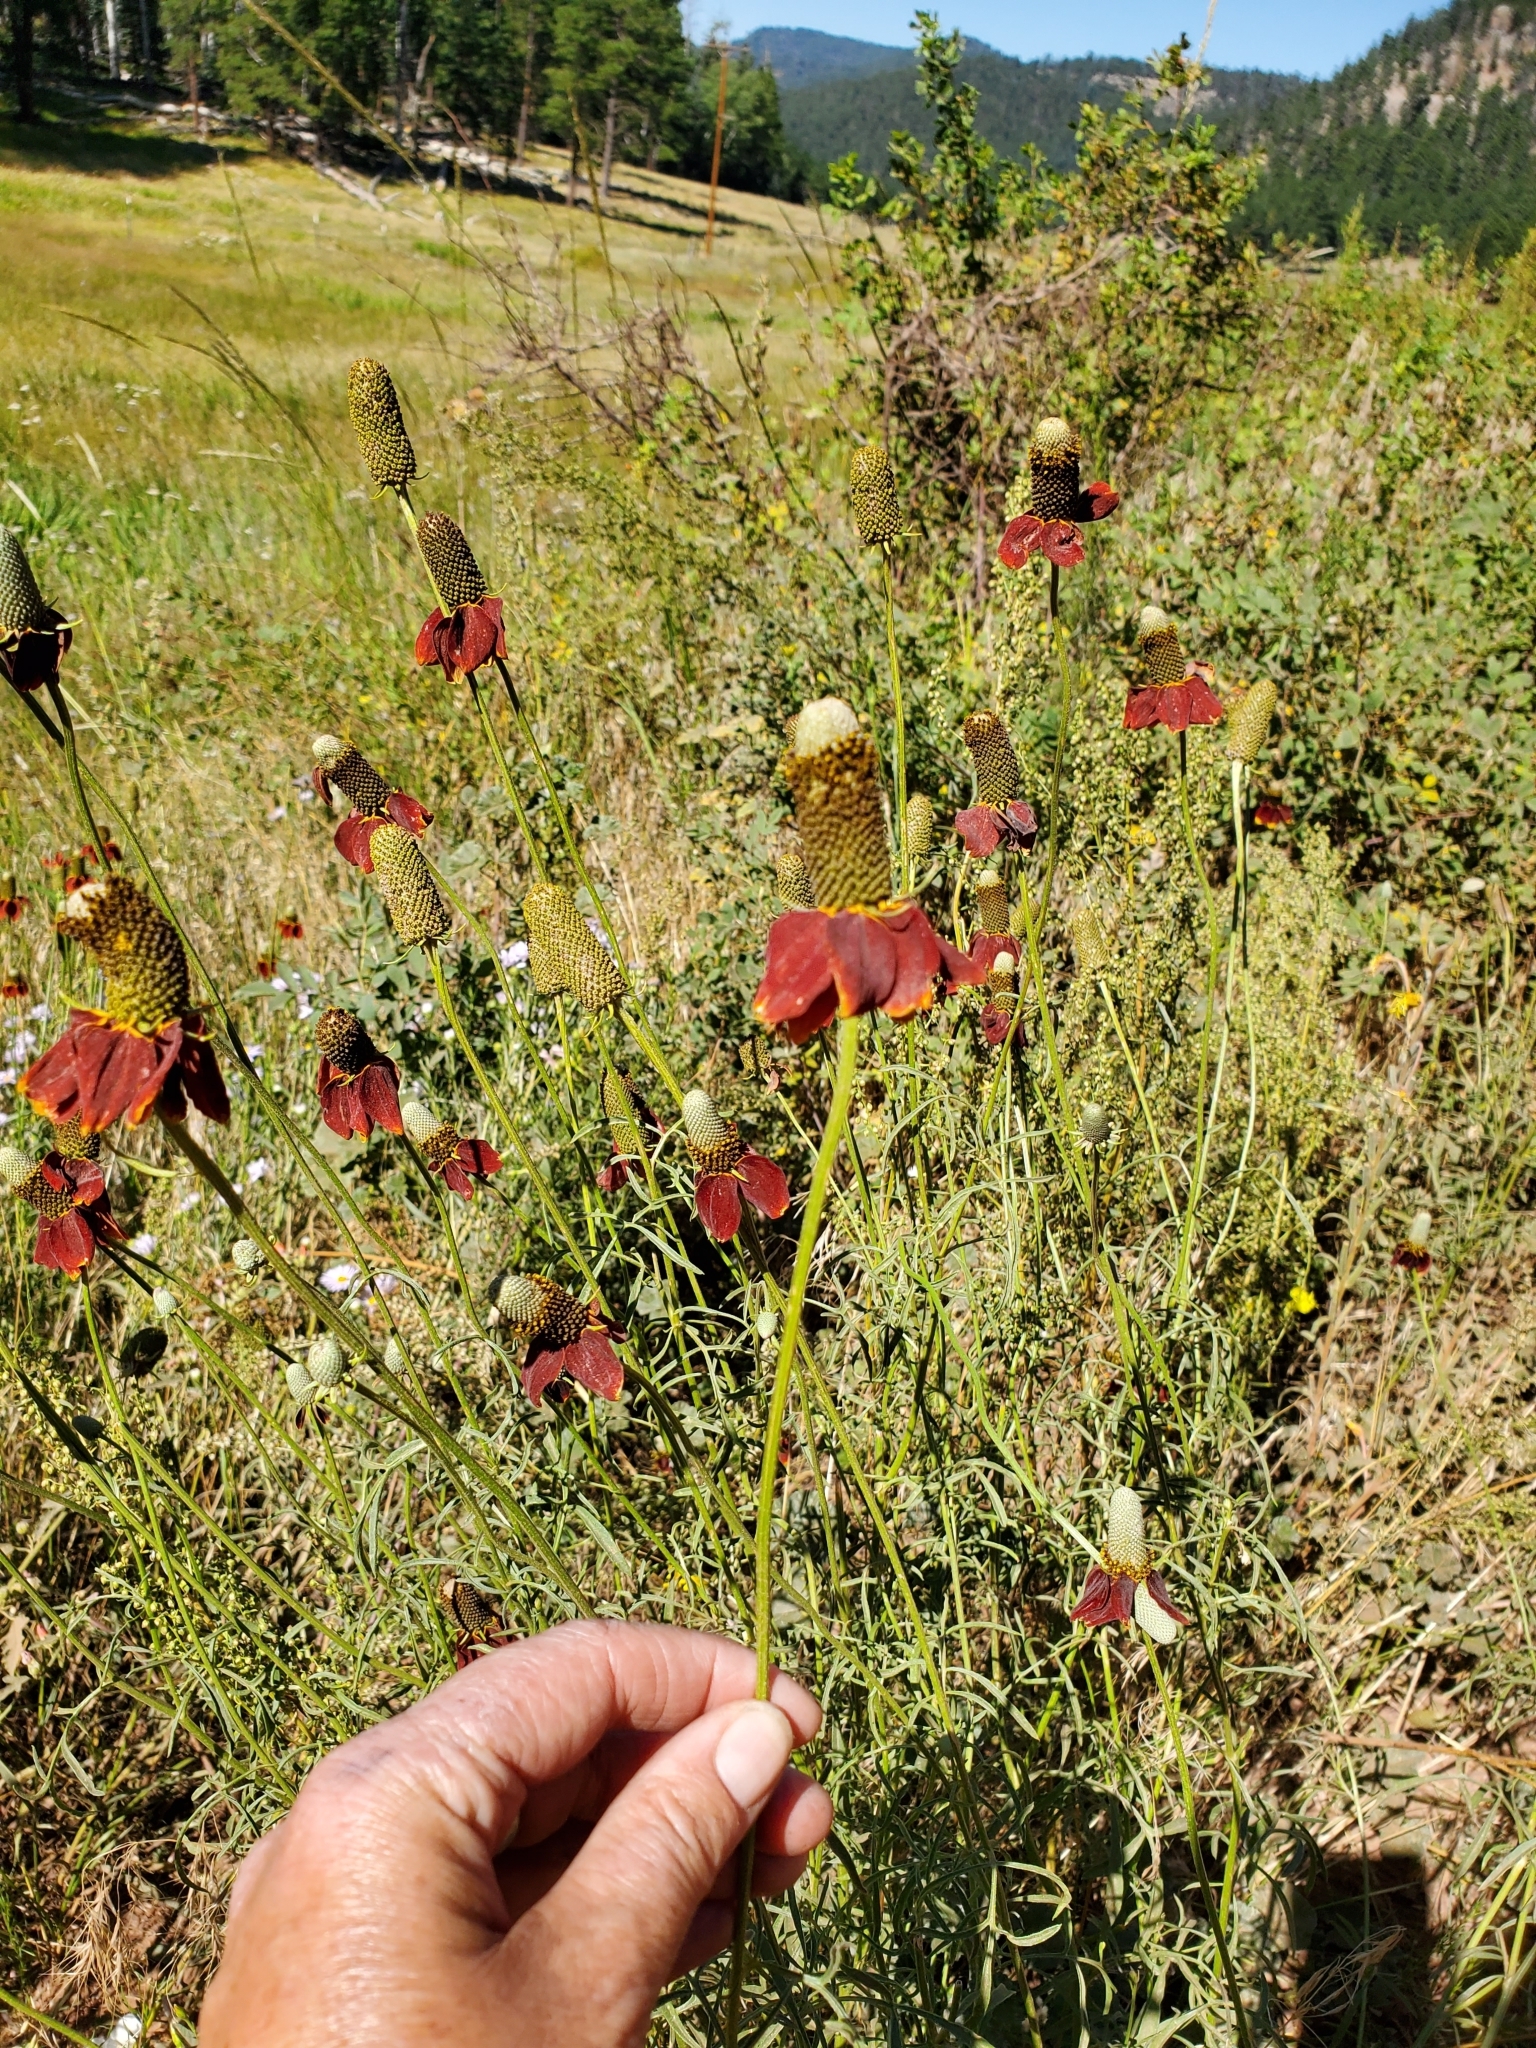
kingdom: Plantae
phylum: Tracheophyta
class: Magnoliopsida
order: Asterales
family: Asteraceae
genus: Ratibida
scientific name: Ratibida columnifera
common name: Prairie coneflower
